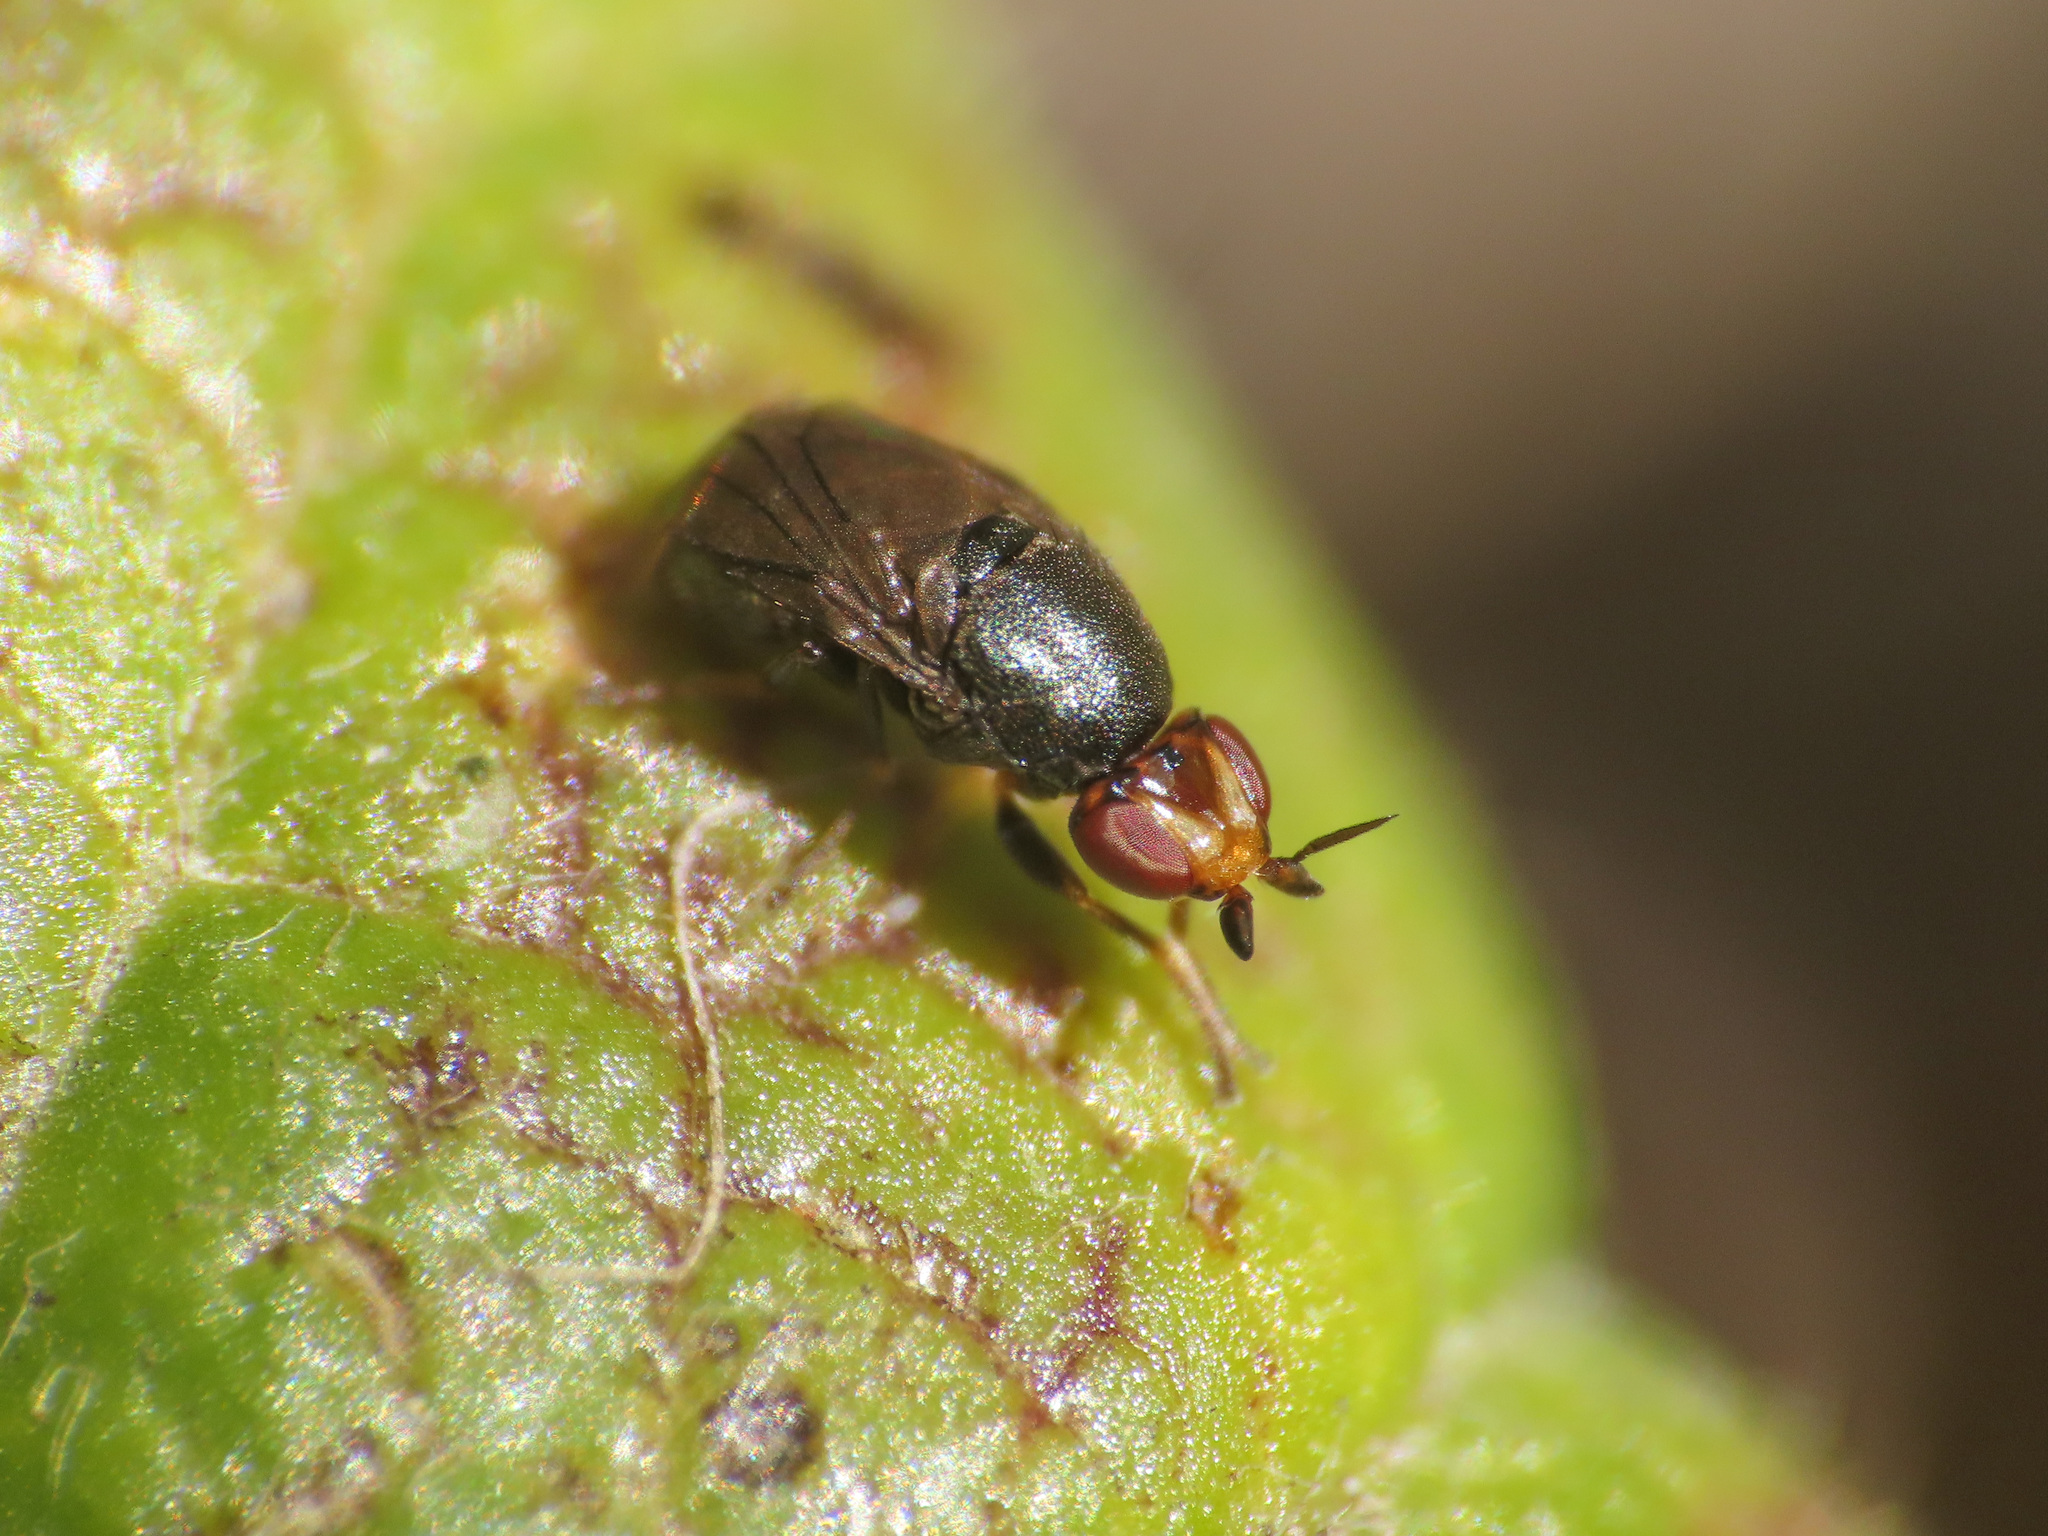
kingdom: Animalia
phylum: Arthropoda
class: Insecta
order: Diptera
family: Chloropidae
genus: Camarota
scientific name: Camarota curvipennis
